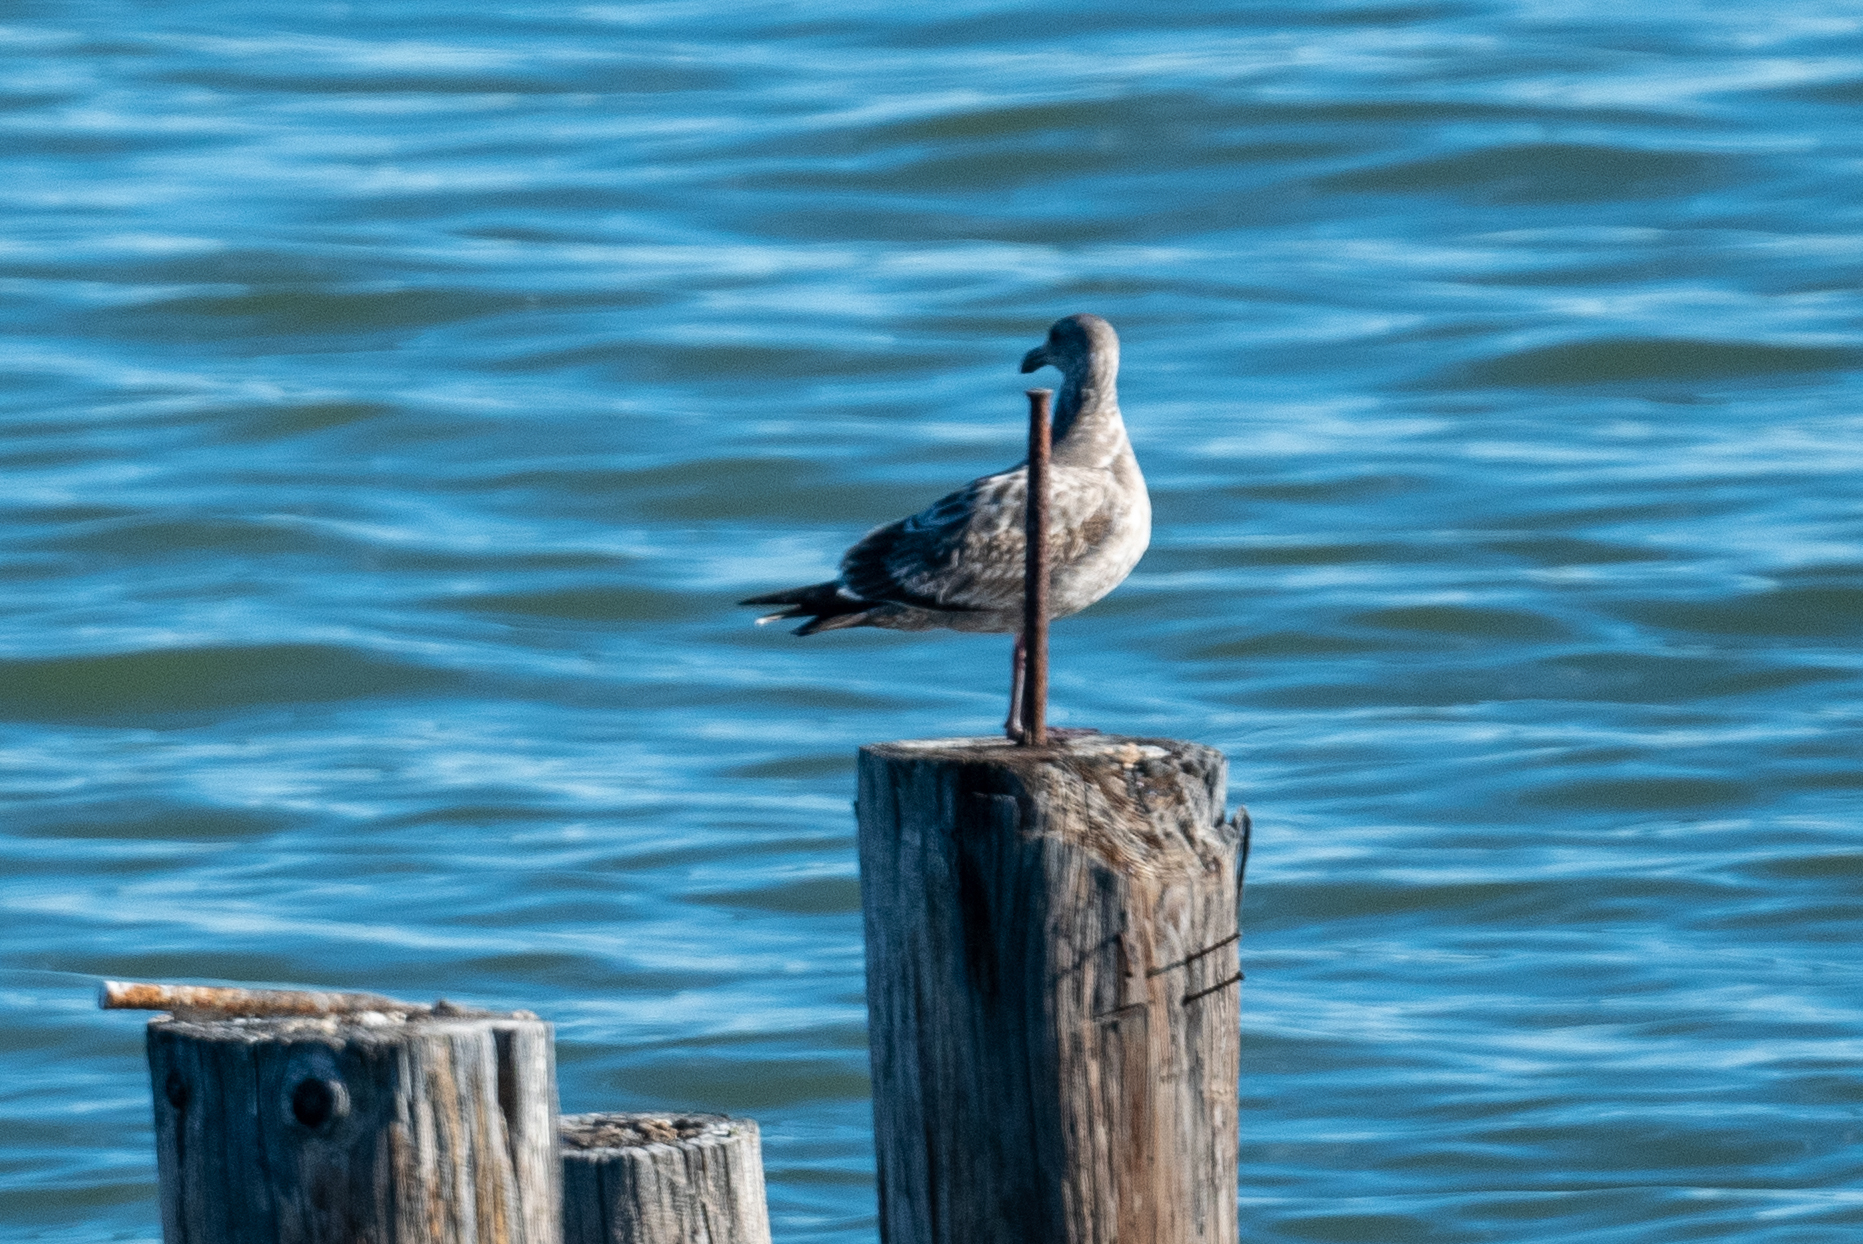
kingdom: Animalia
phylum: Chordata
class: Aves
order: Charadriiformes
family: Laridae
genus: Larus
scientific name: Larus occidentalis
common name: Western gull
